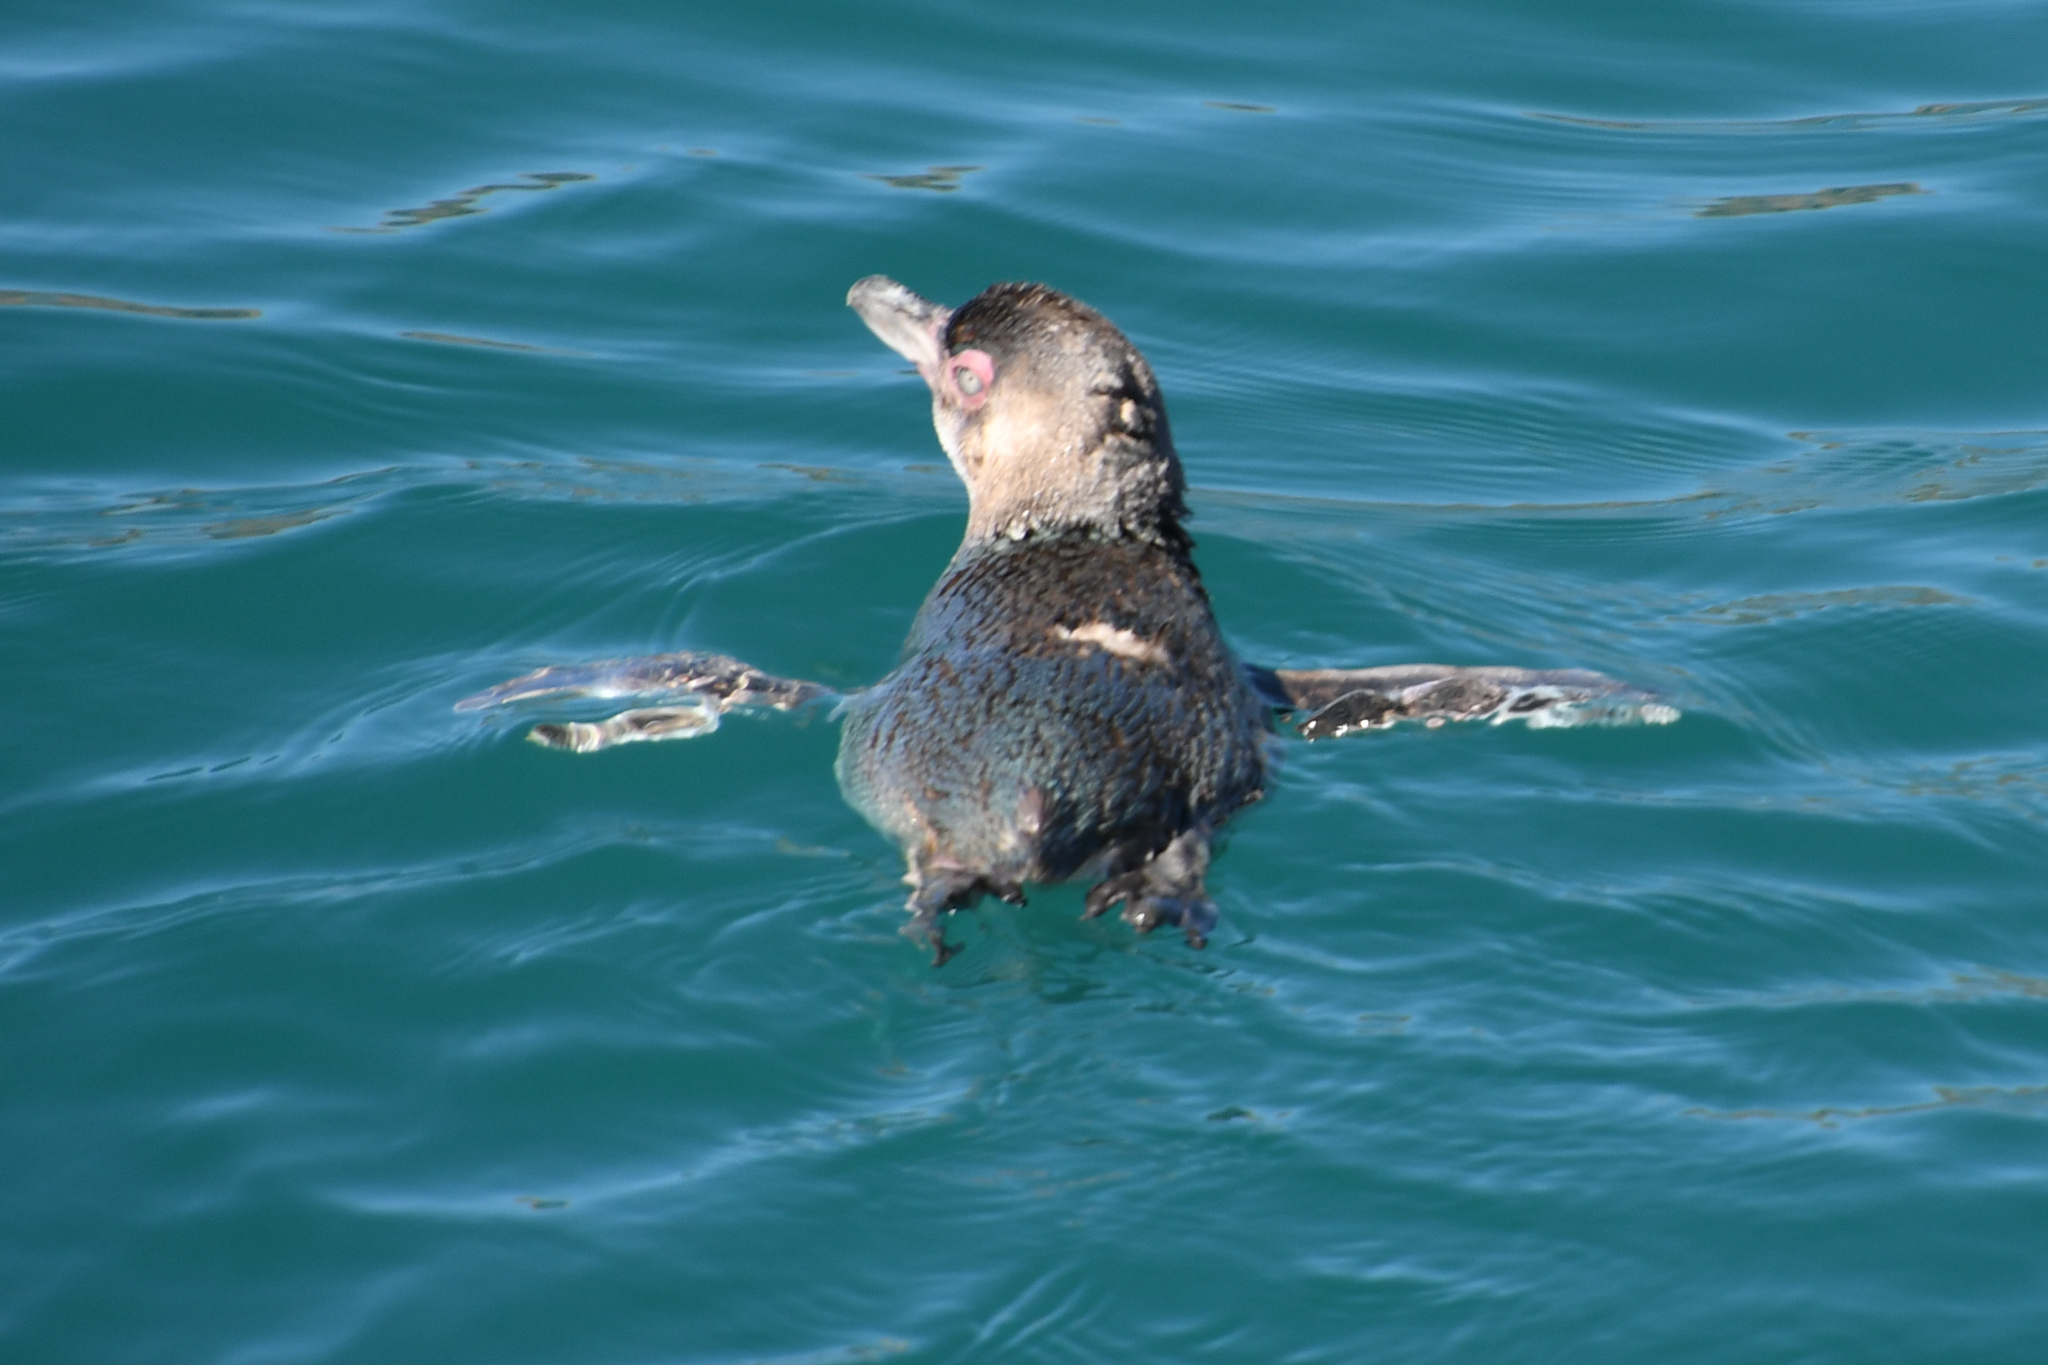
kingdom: Animalia
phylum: Chordata
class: Aves
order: Sphenisciformes
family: Spheniscidae
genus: Eudyptula
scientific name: Eudyptula minor
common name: Little penguin
